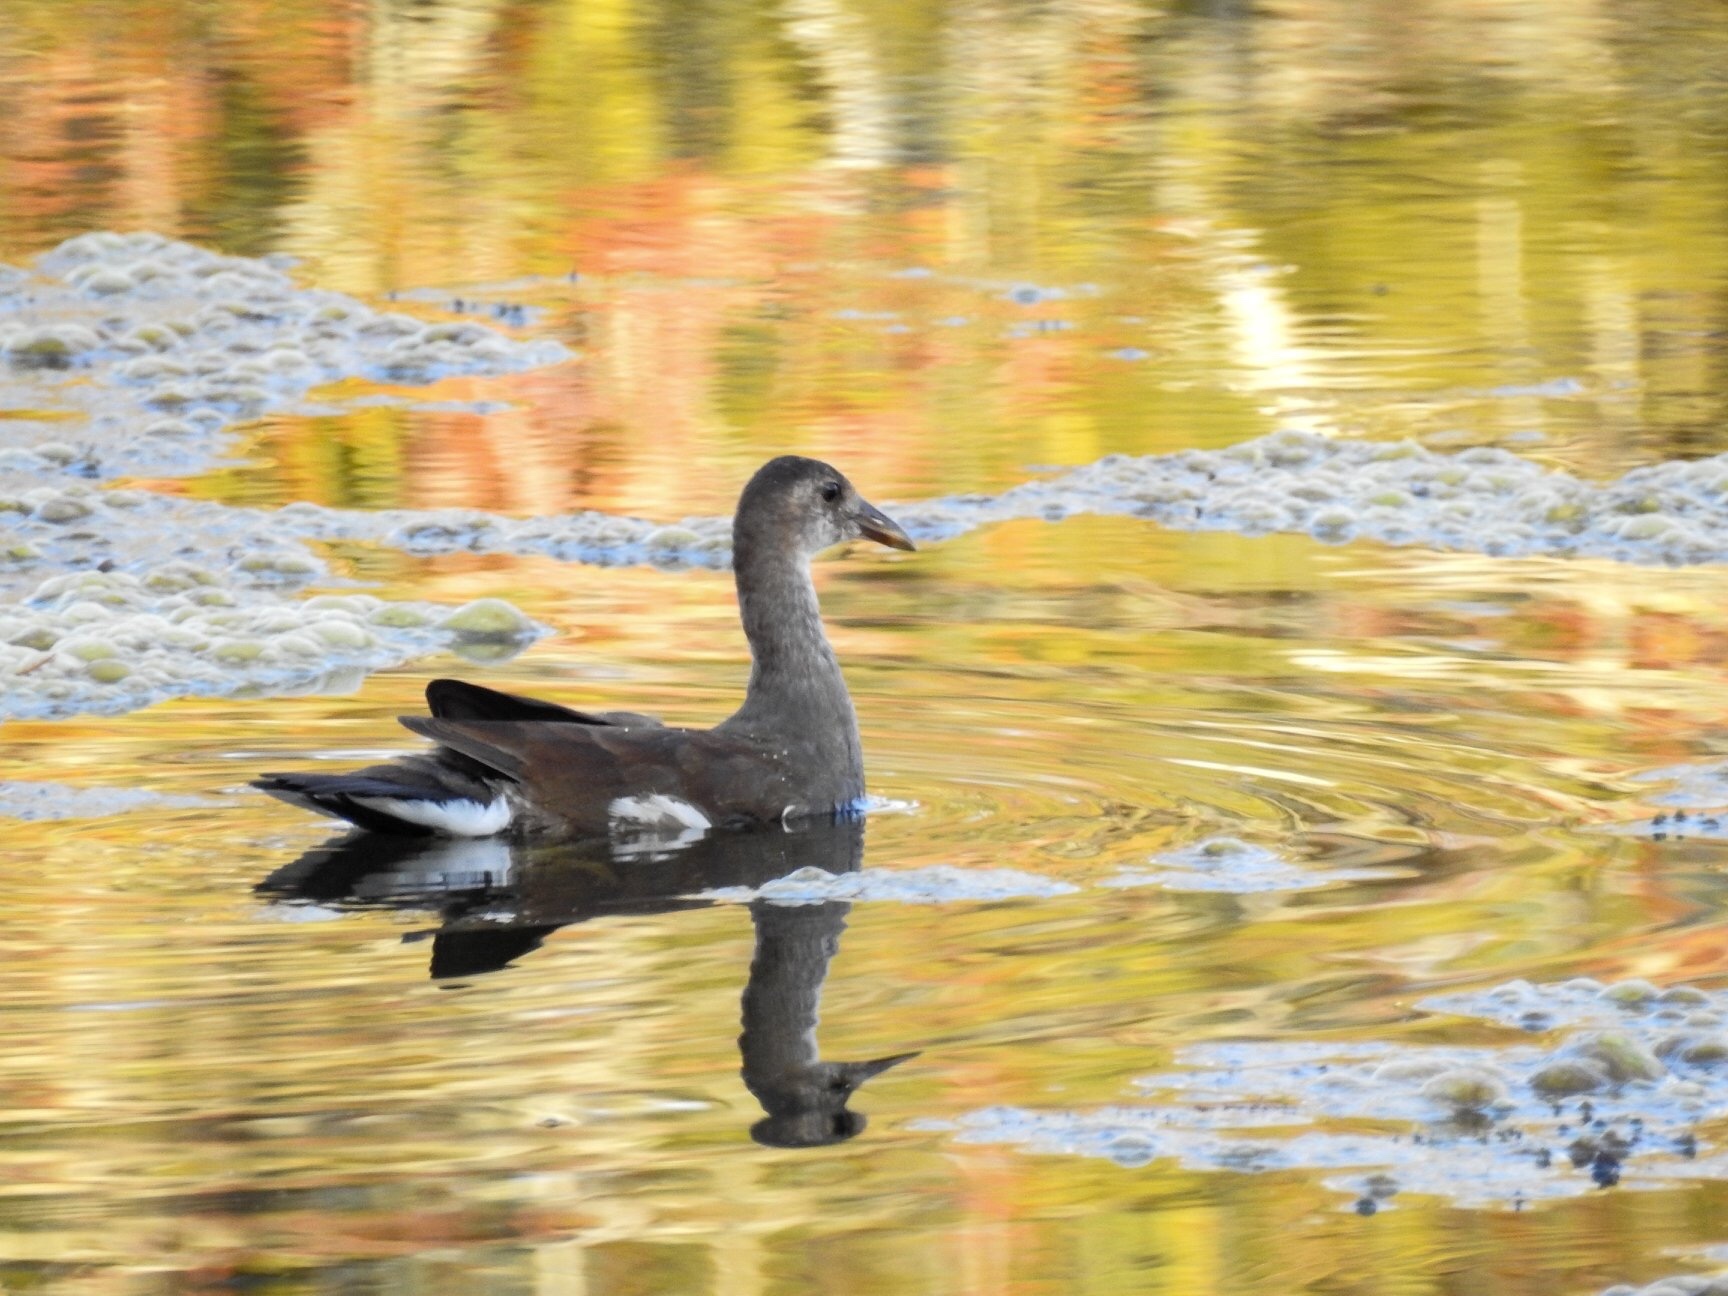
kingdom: Animalia
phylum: Chordata
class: Aves
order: Gruiformes
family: Rallidae
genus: Gallinula
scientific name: Gallinula chloropus
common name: Common moorhen
